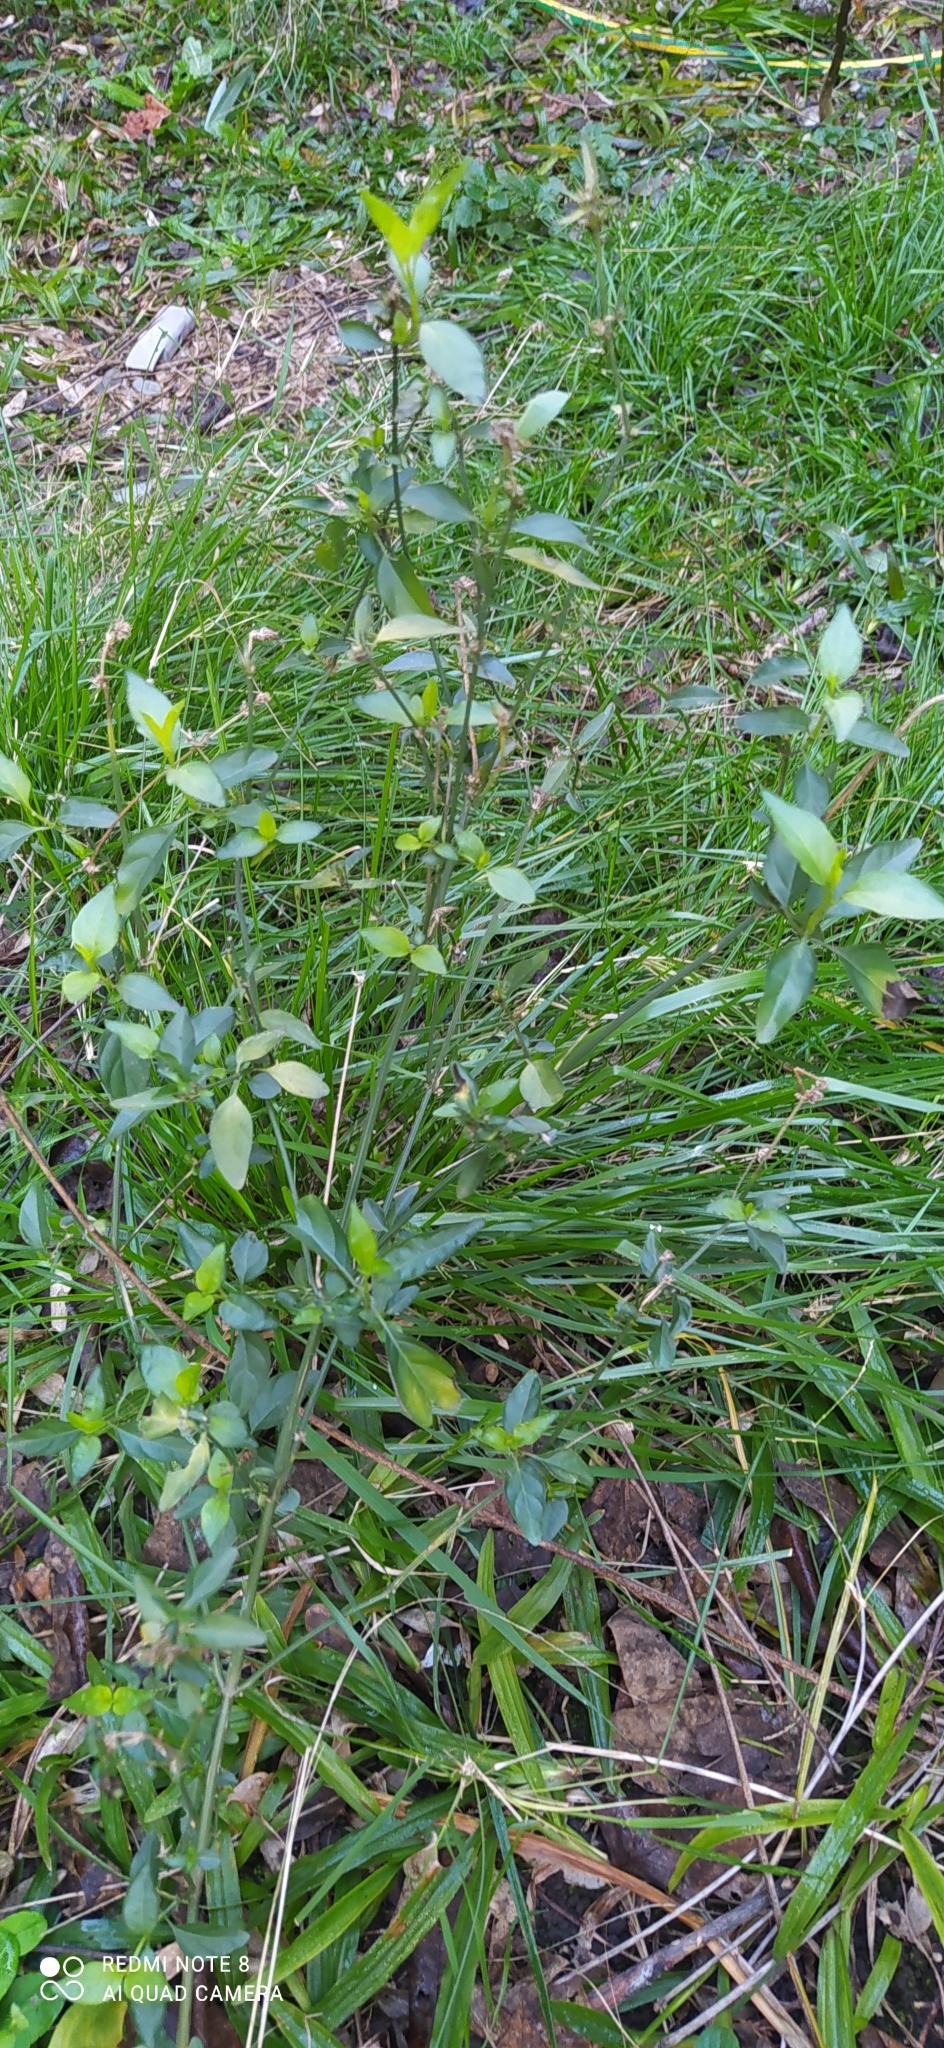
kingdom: Plantae
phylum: Tracheophyta
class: Magnoliopsida
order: Lamiales
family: Acanthaceae
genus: Dicliptera
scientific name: Dicliptera squarrosa
